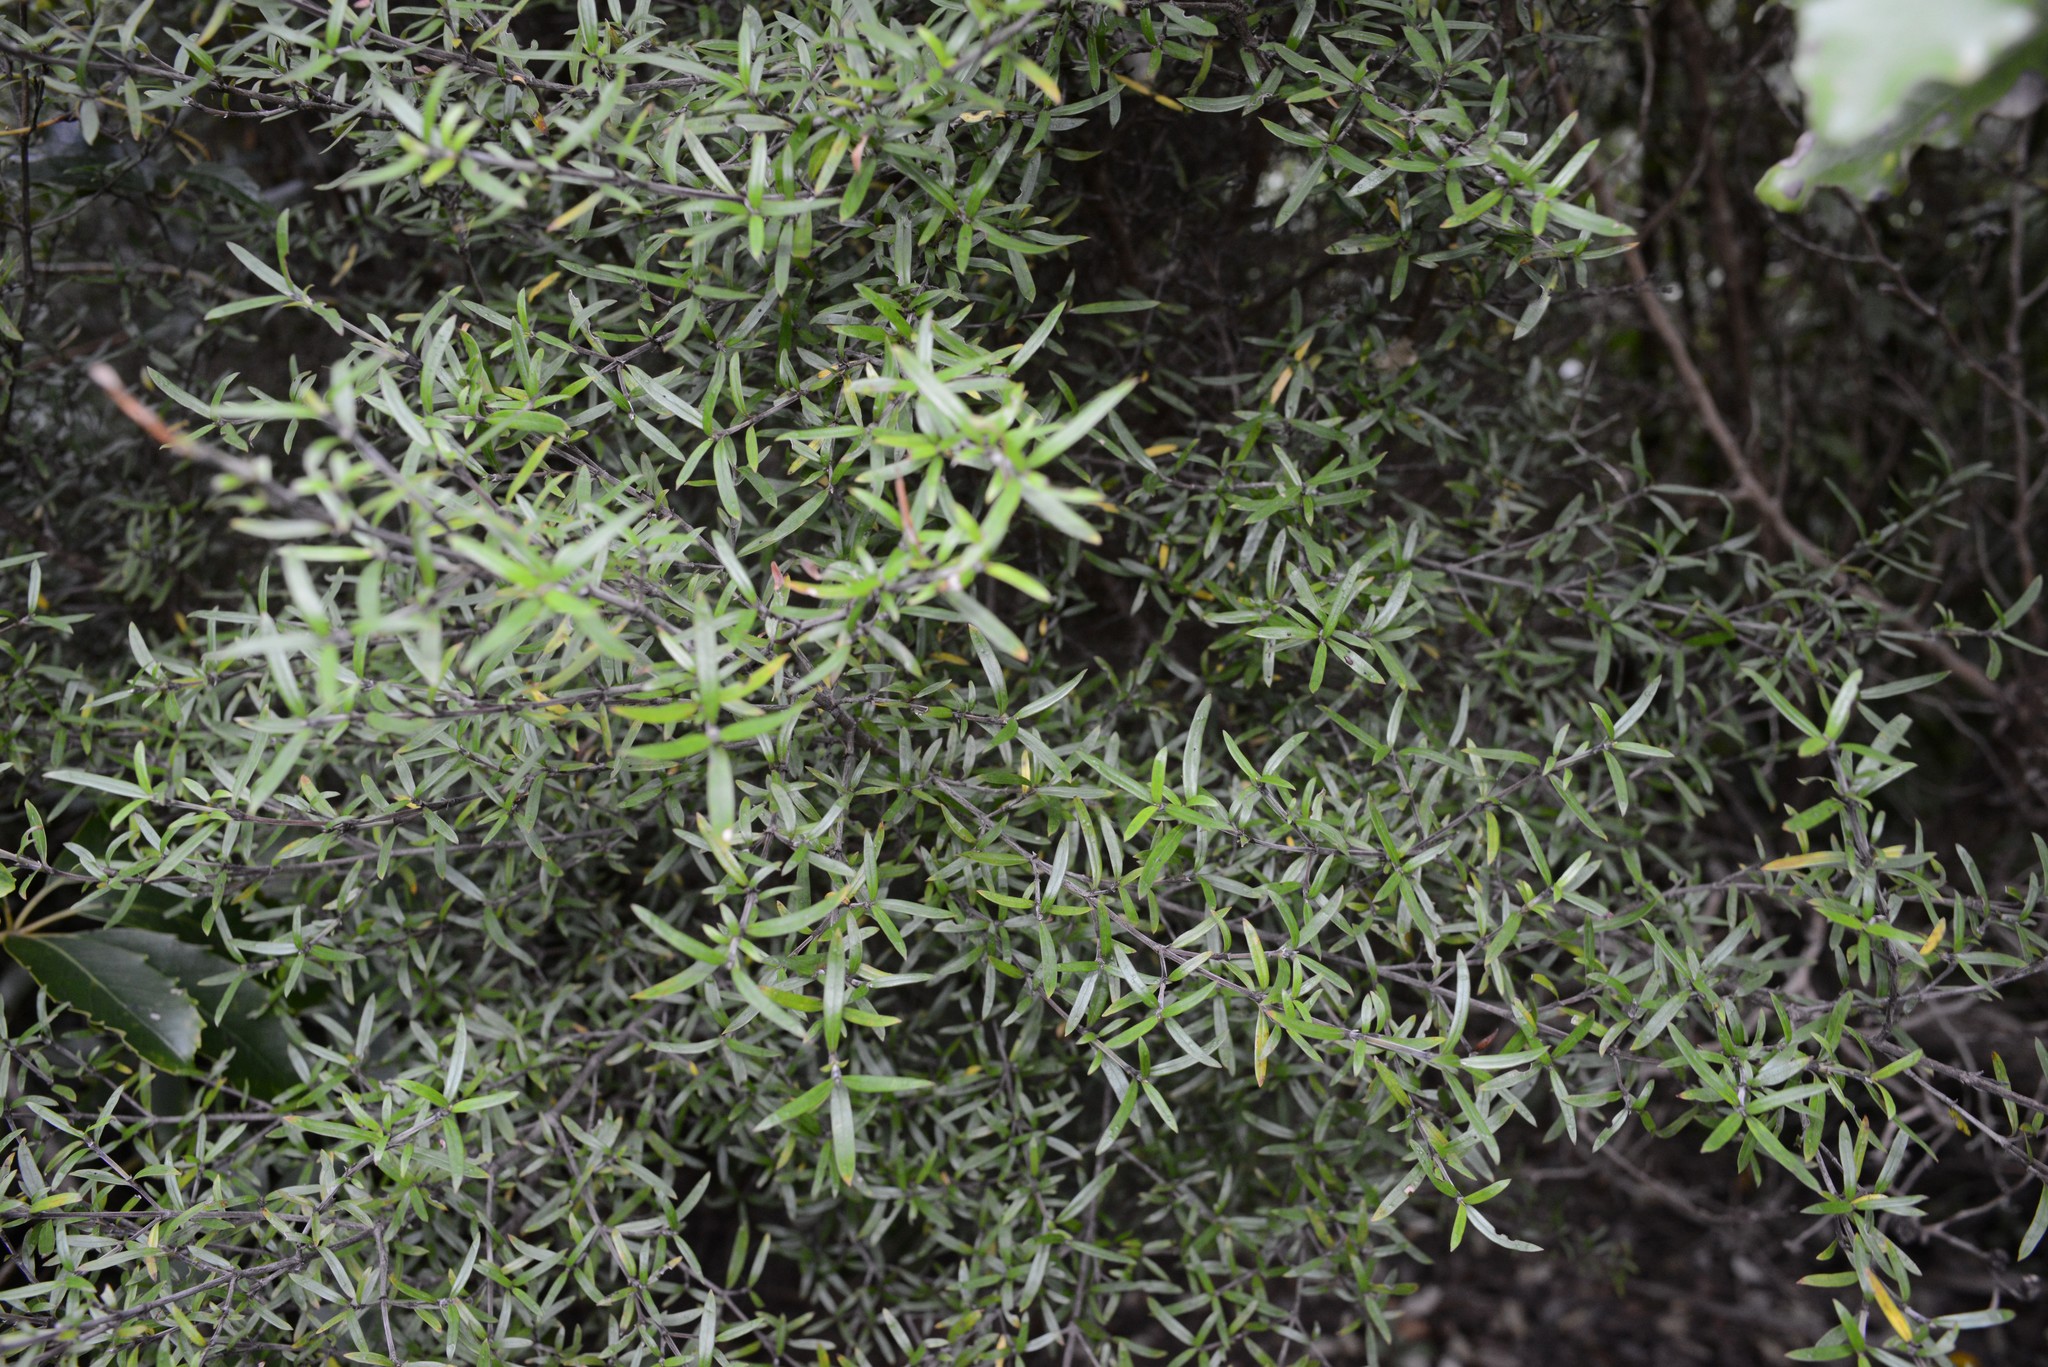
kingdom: Plantae
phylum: Tracheophyta
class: Magnoliopsida
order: Gentianales
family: Rubiaceae
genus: Coprosma
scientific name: Coprosma linariifolia
